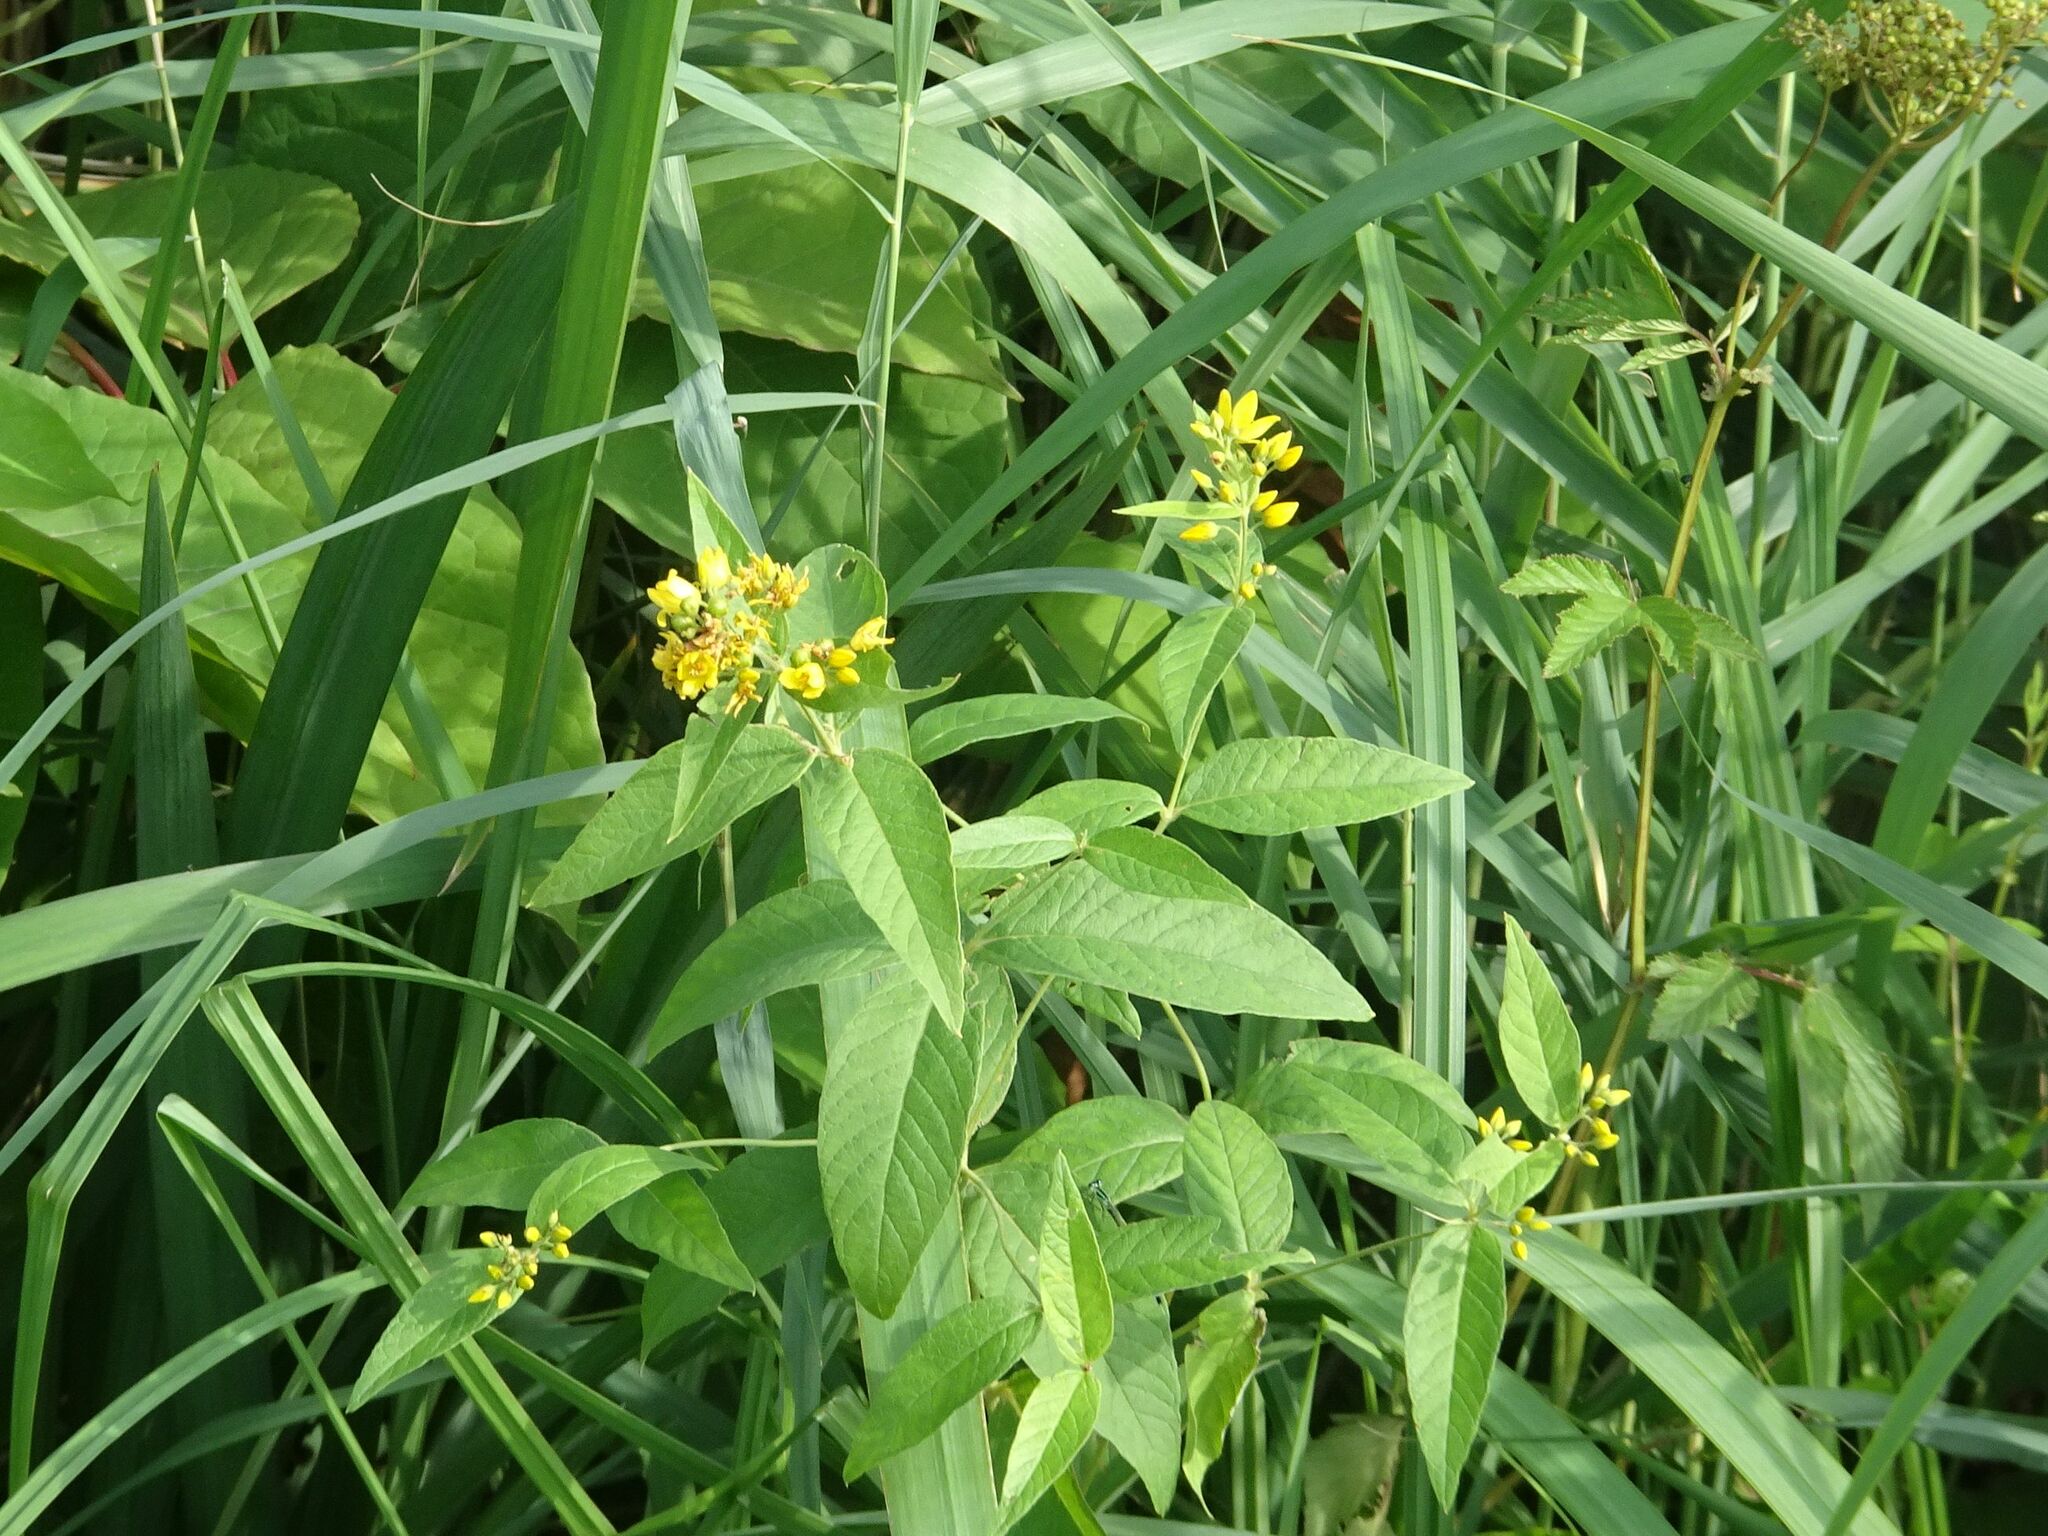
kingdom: Plantae
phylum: Tracheophyta
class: Magnoliopsida
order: Ericales
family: Primulaceae
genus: Lysimachia
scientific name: Lysimachia vulgaris
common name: Yellow loosestrife
